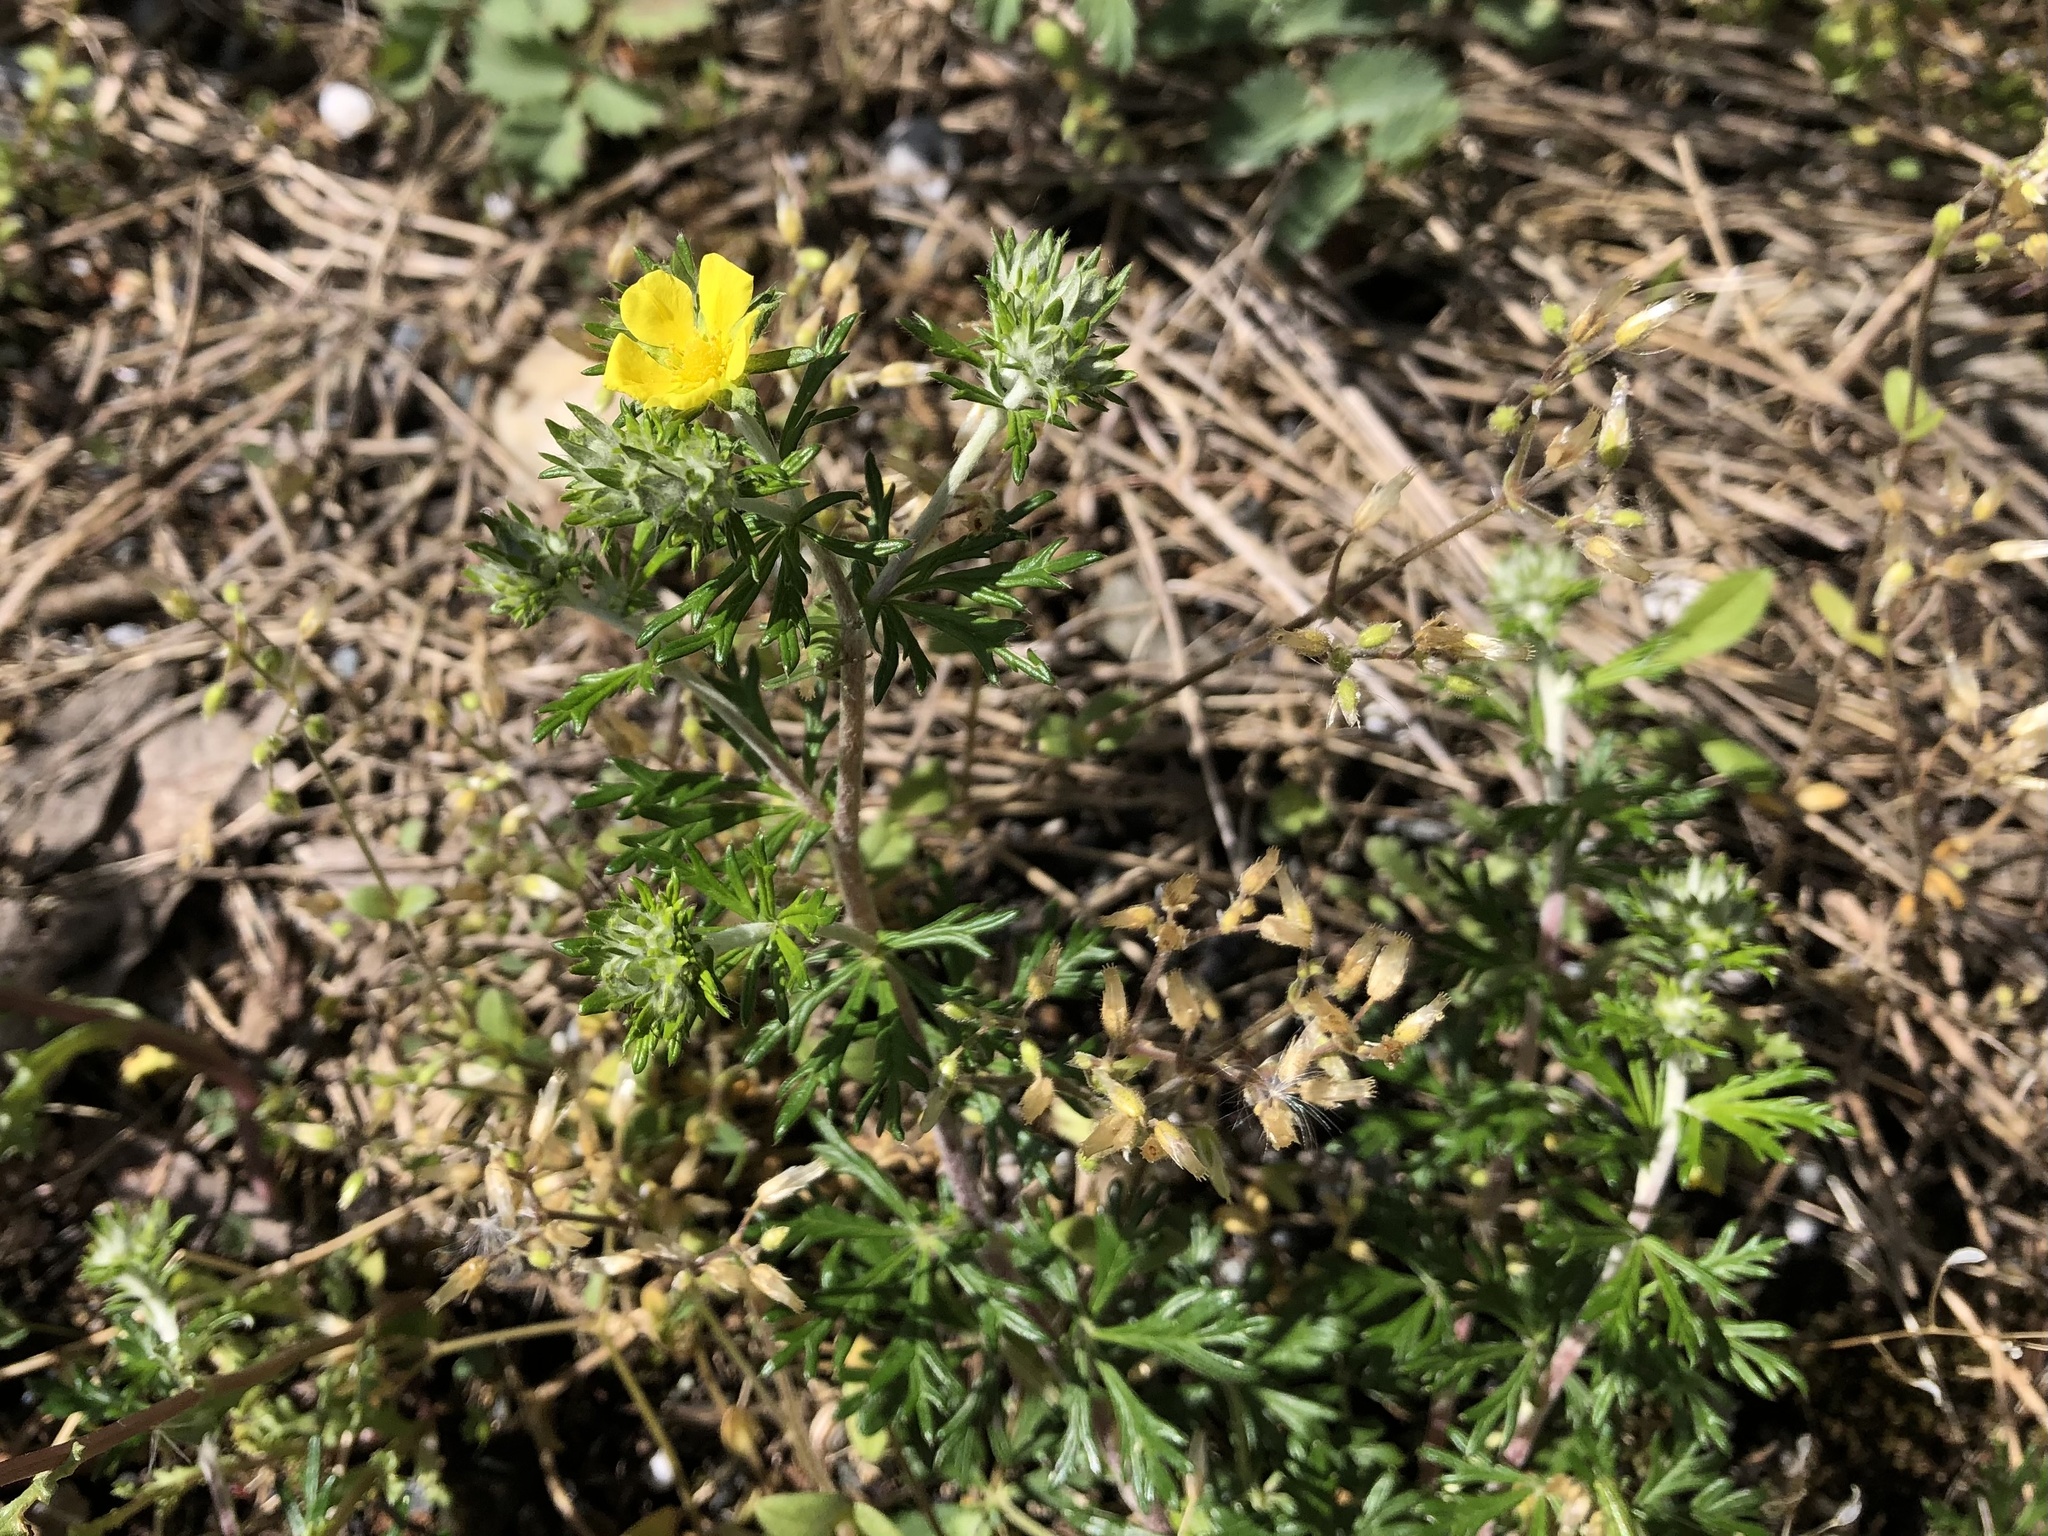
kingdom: Plantae
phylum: Tracheophyta
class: Magnoliopsida
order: Rosales
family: Rosaceae
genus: Potentilla
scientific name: Potentilla argentea
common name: Hoary cinquefoil
